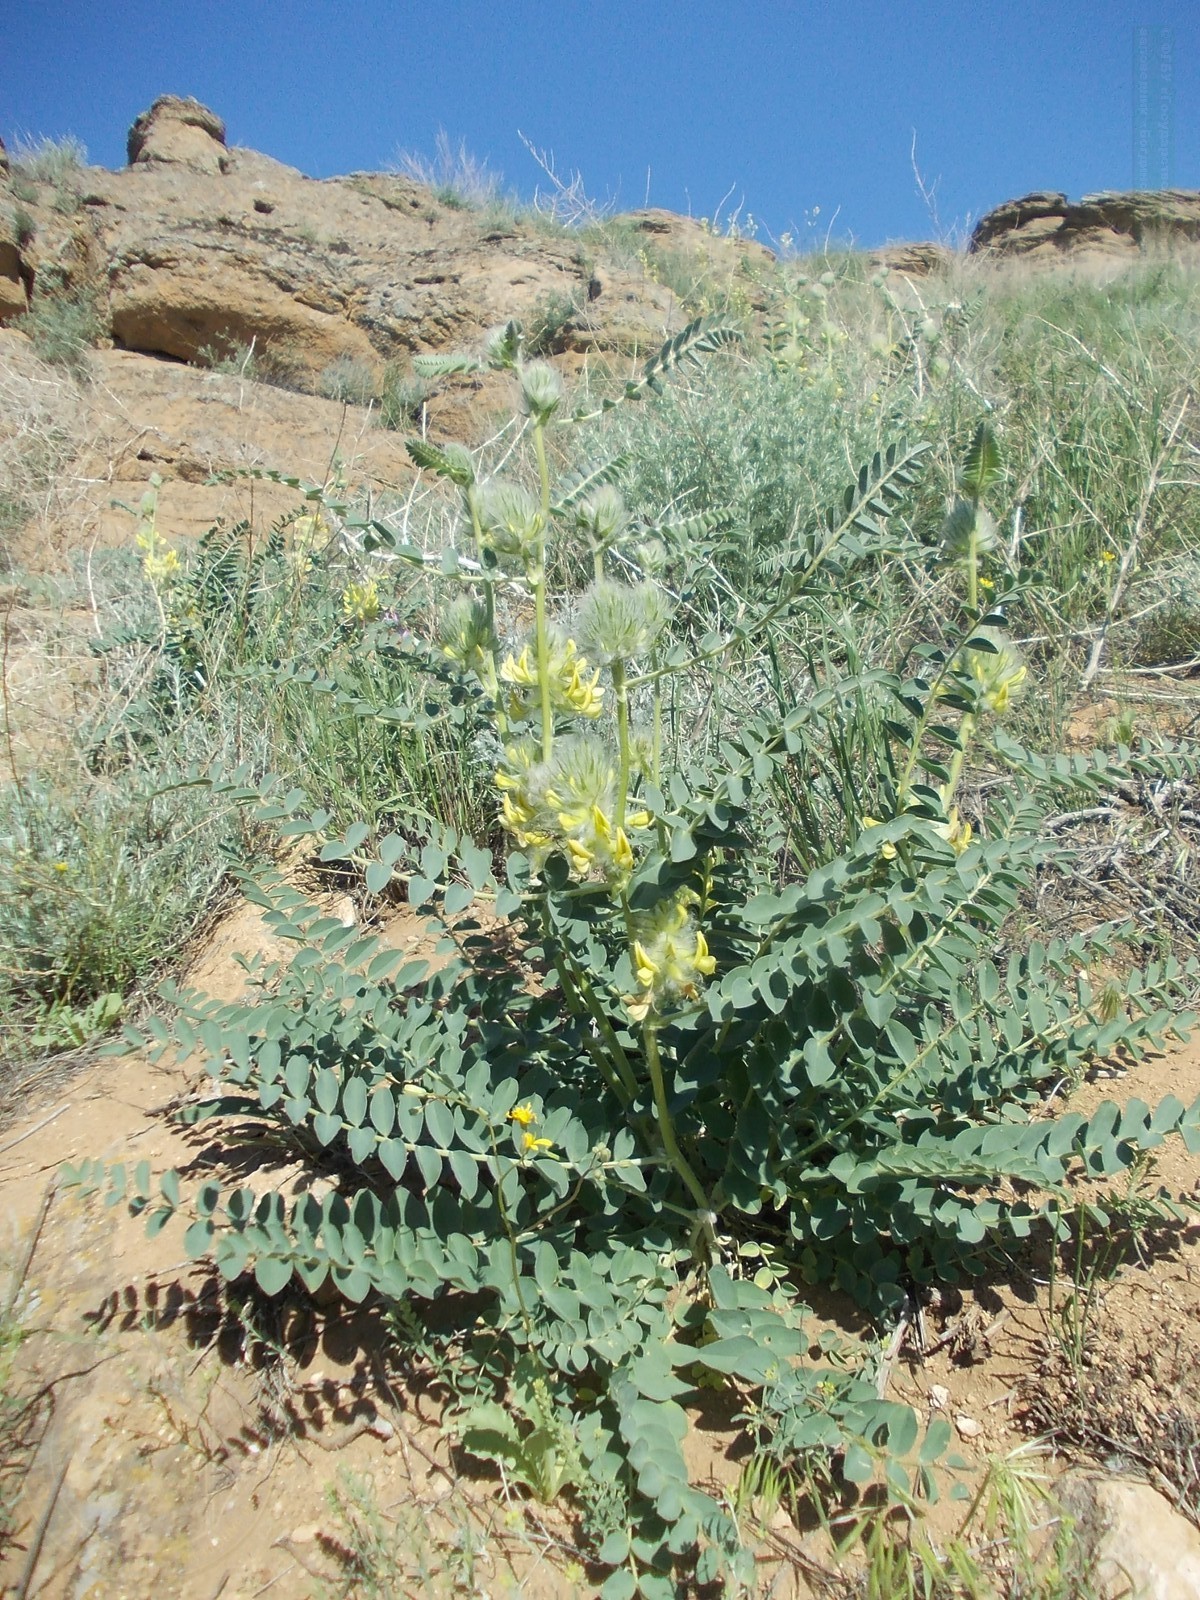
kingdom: Plantae
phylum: Tracheophyta
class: Magnoliopsida
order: Fabales
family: Fabaceae
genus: Astragalus
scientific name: Astragalus vulpinus
